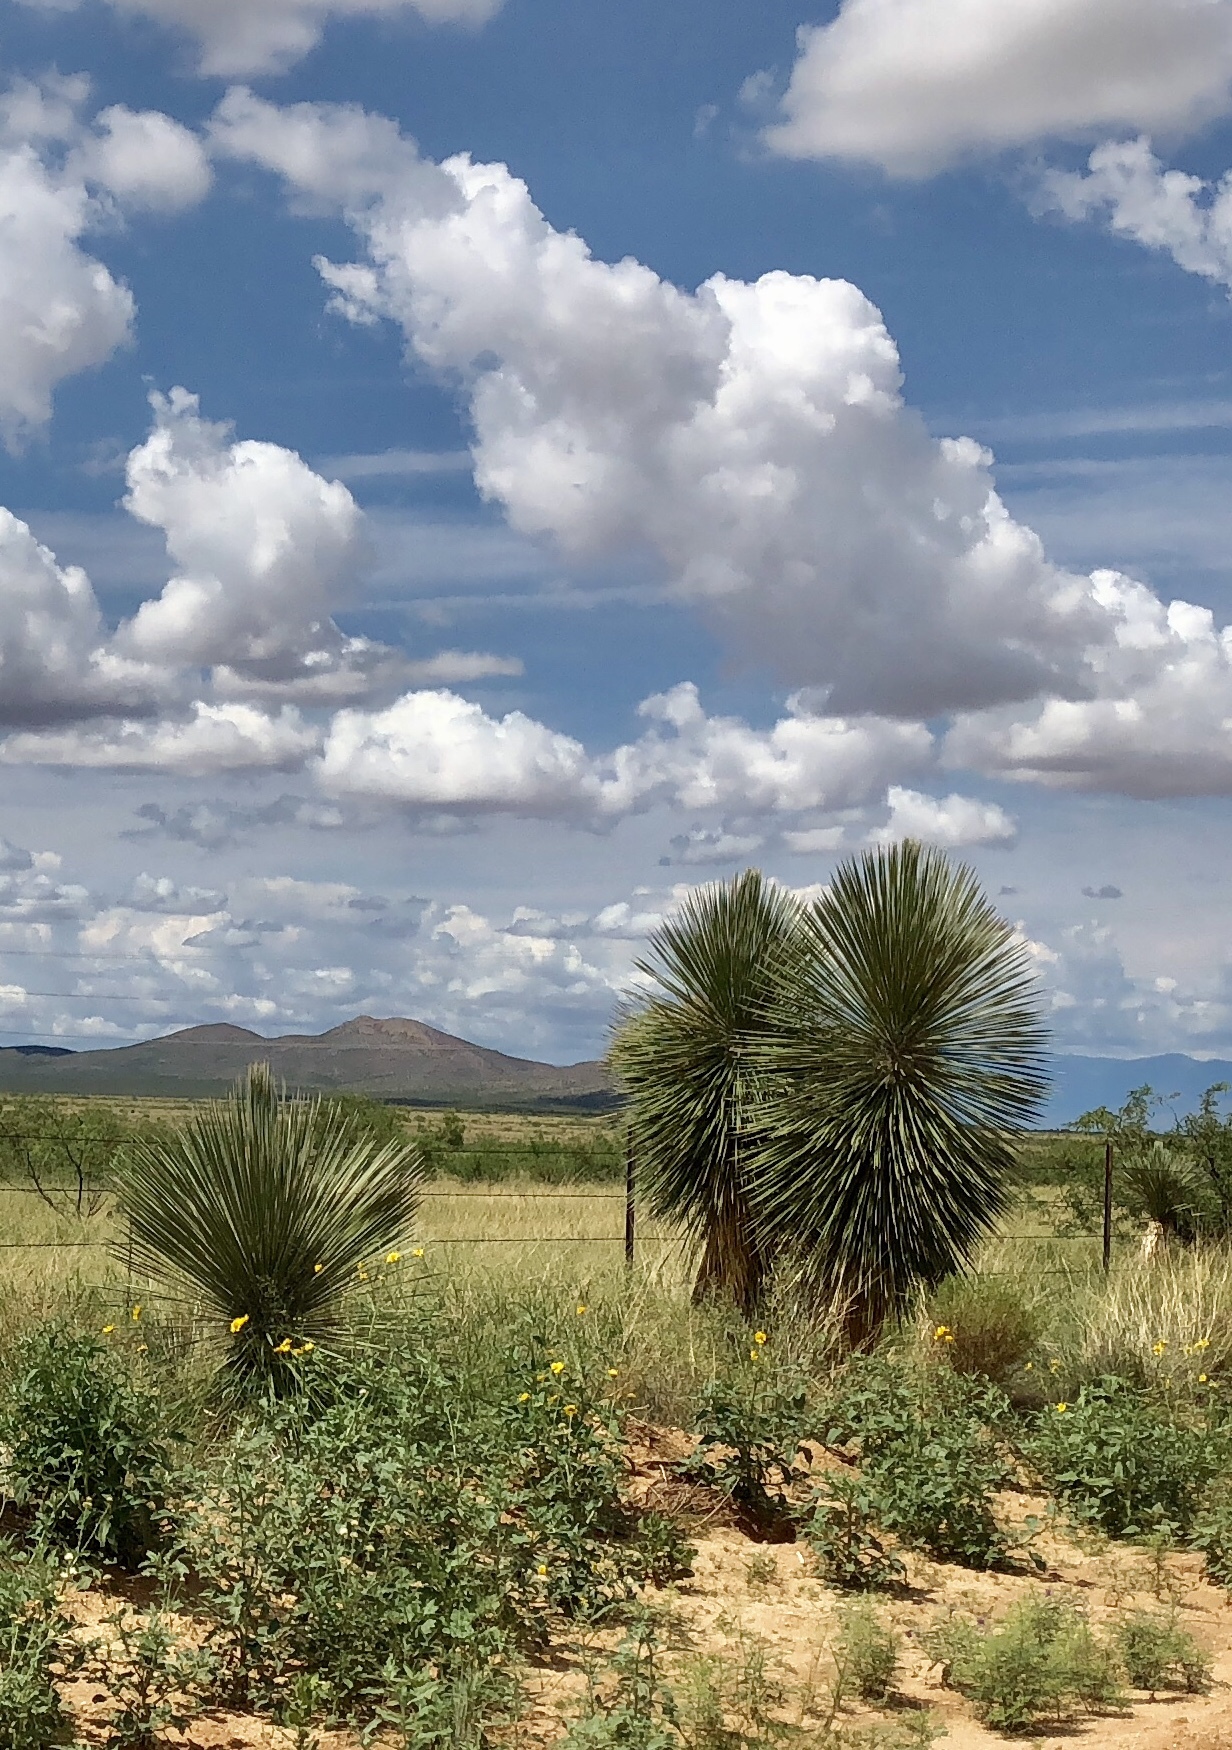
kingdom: Plantae
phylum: Tracheophyta
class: Liliopsida
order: Asparagales
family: Asparagaceae
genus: Yucca
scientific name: Yucca elata
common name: Palmella
